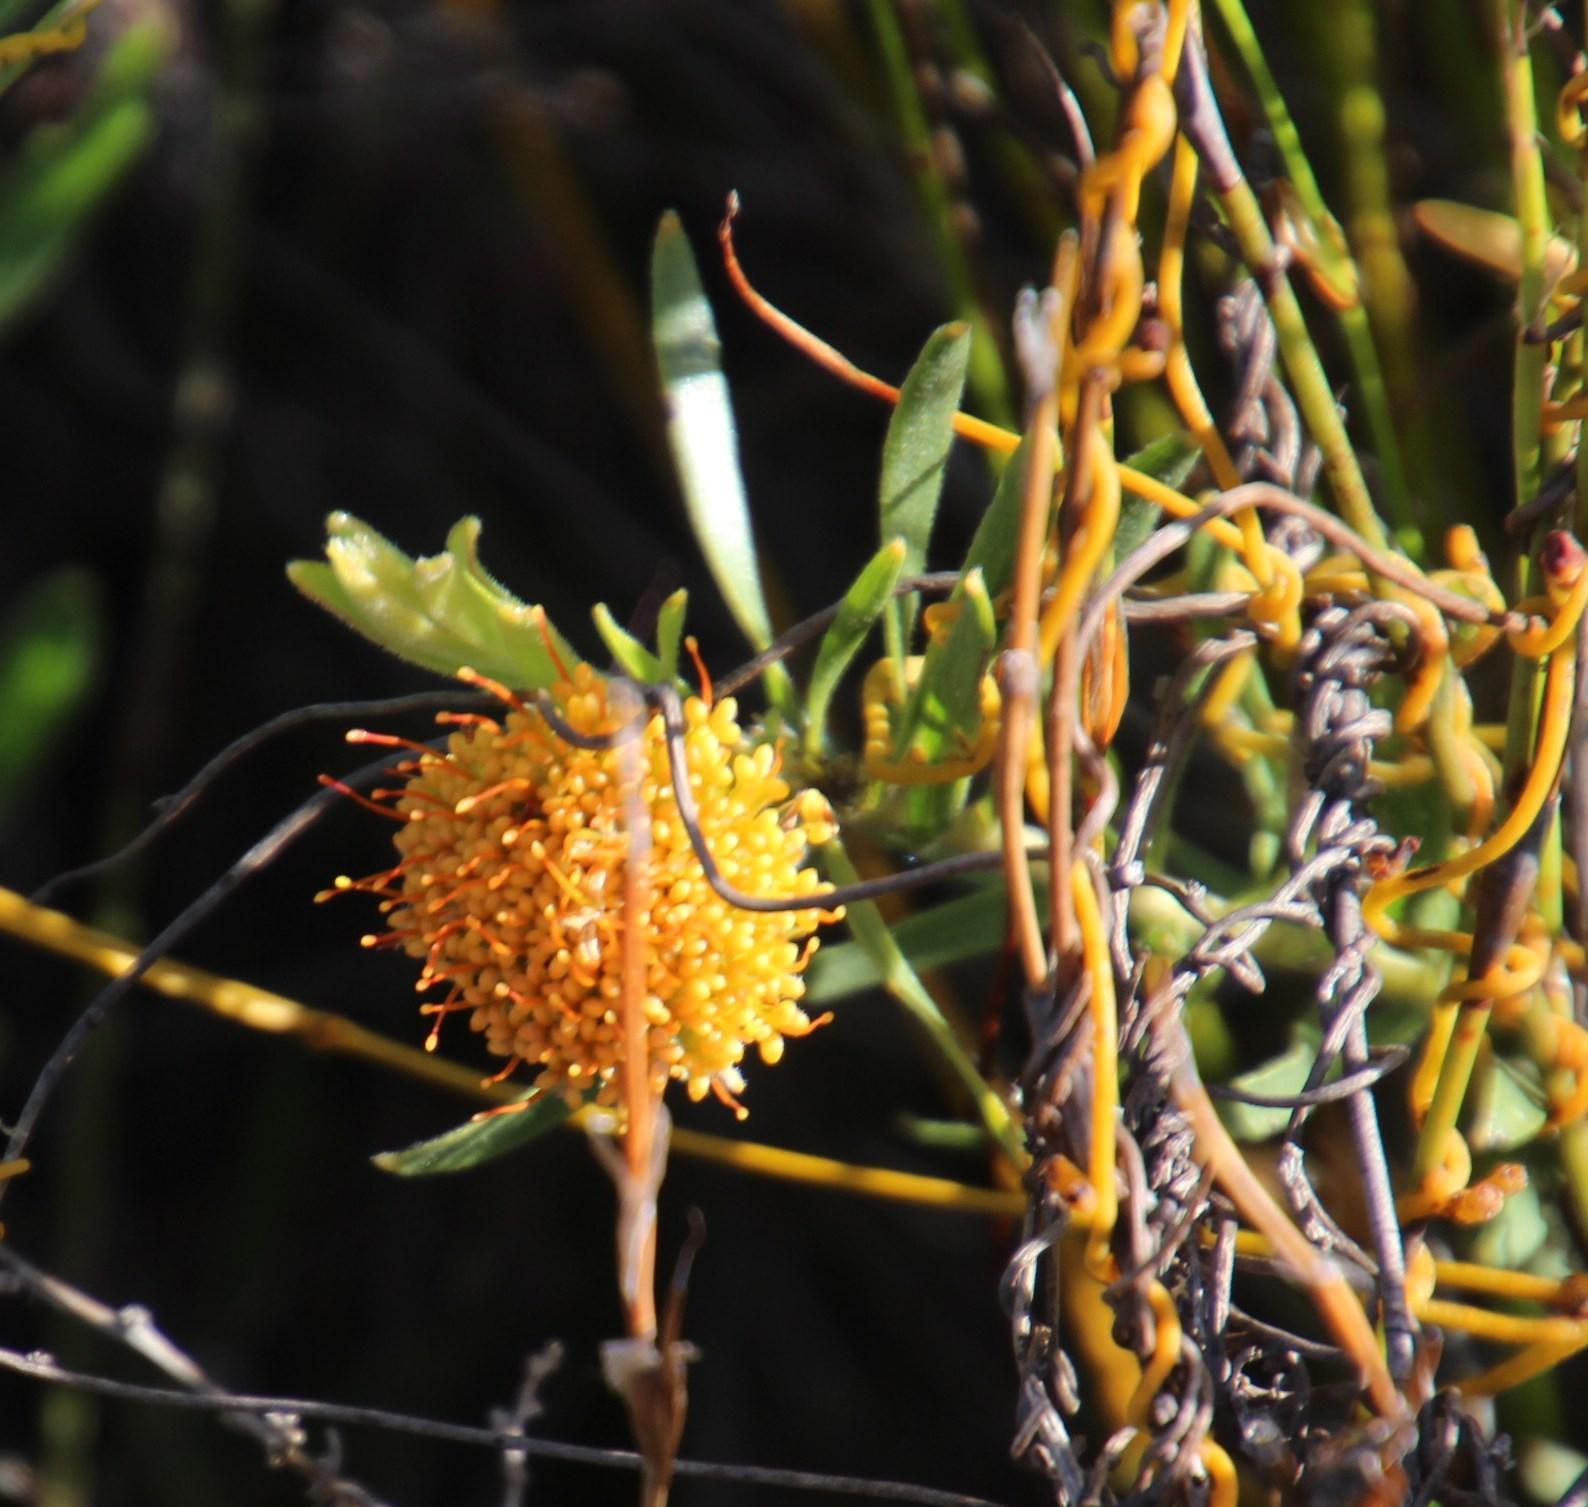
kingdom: Plantae
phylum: Tracheophyta
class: Magnoliopsida
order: Proteales
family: Proteaceae
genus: Leucospermum
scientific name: Leucospermum prostratum
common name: Yellow-trailing pincushion
